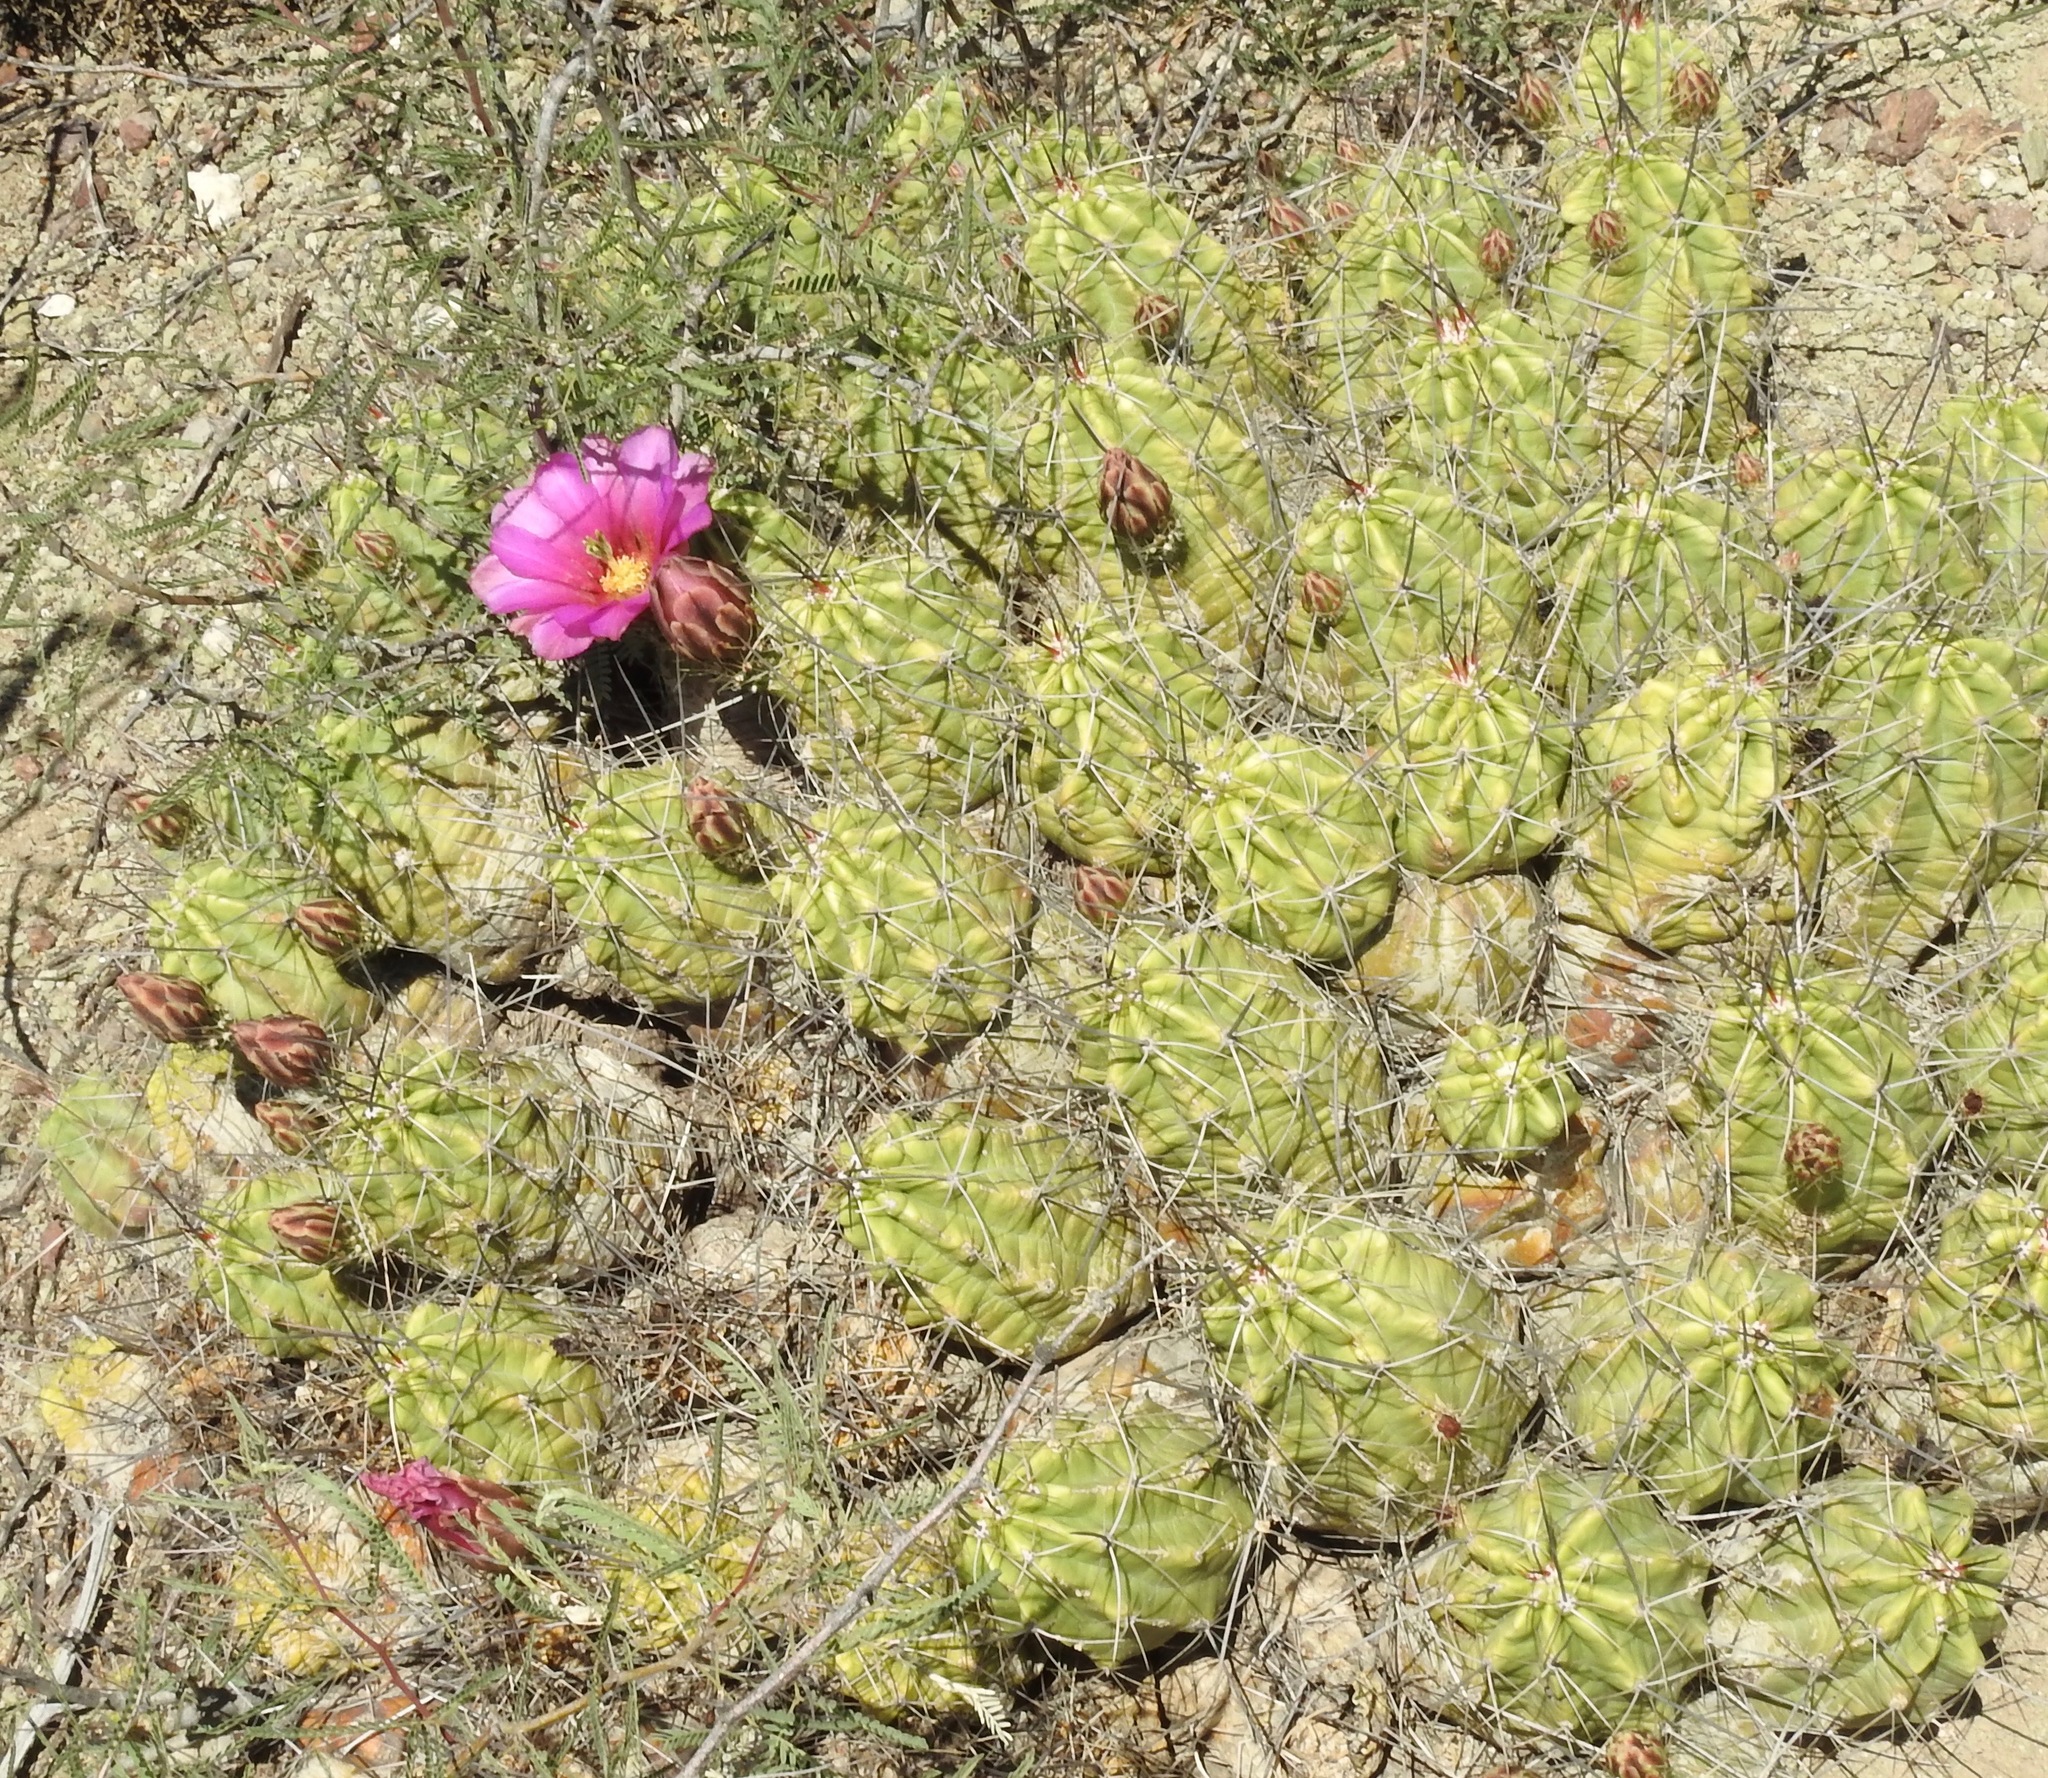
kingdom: Plantae
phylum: Tracheophyta
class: Magnoliopsida
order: Caryophyllales
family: Cactaceae
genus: Echinocereus
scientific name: Echinocereus enneacanthus
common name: Pitaya
